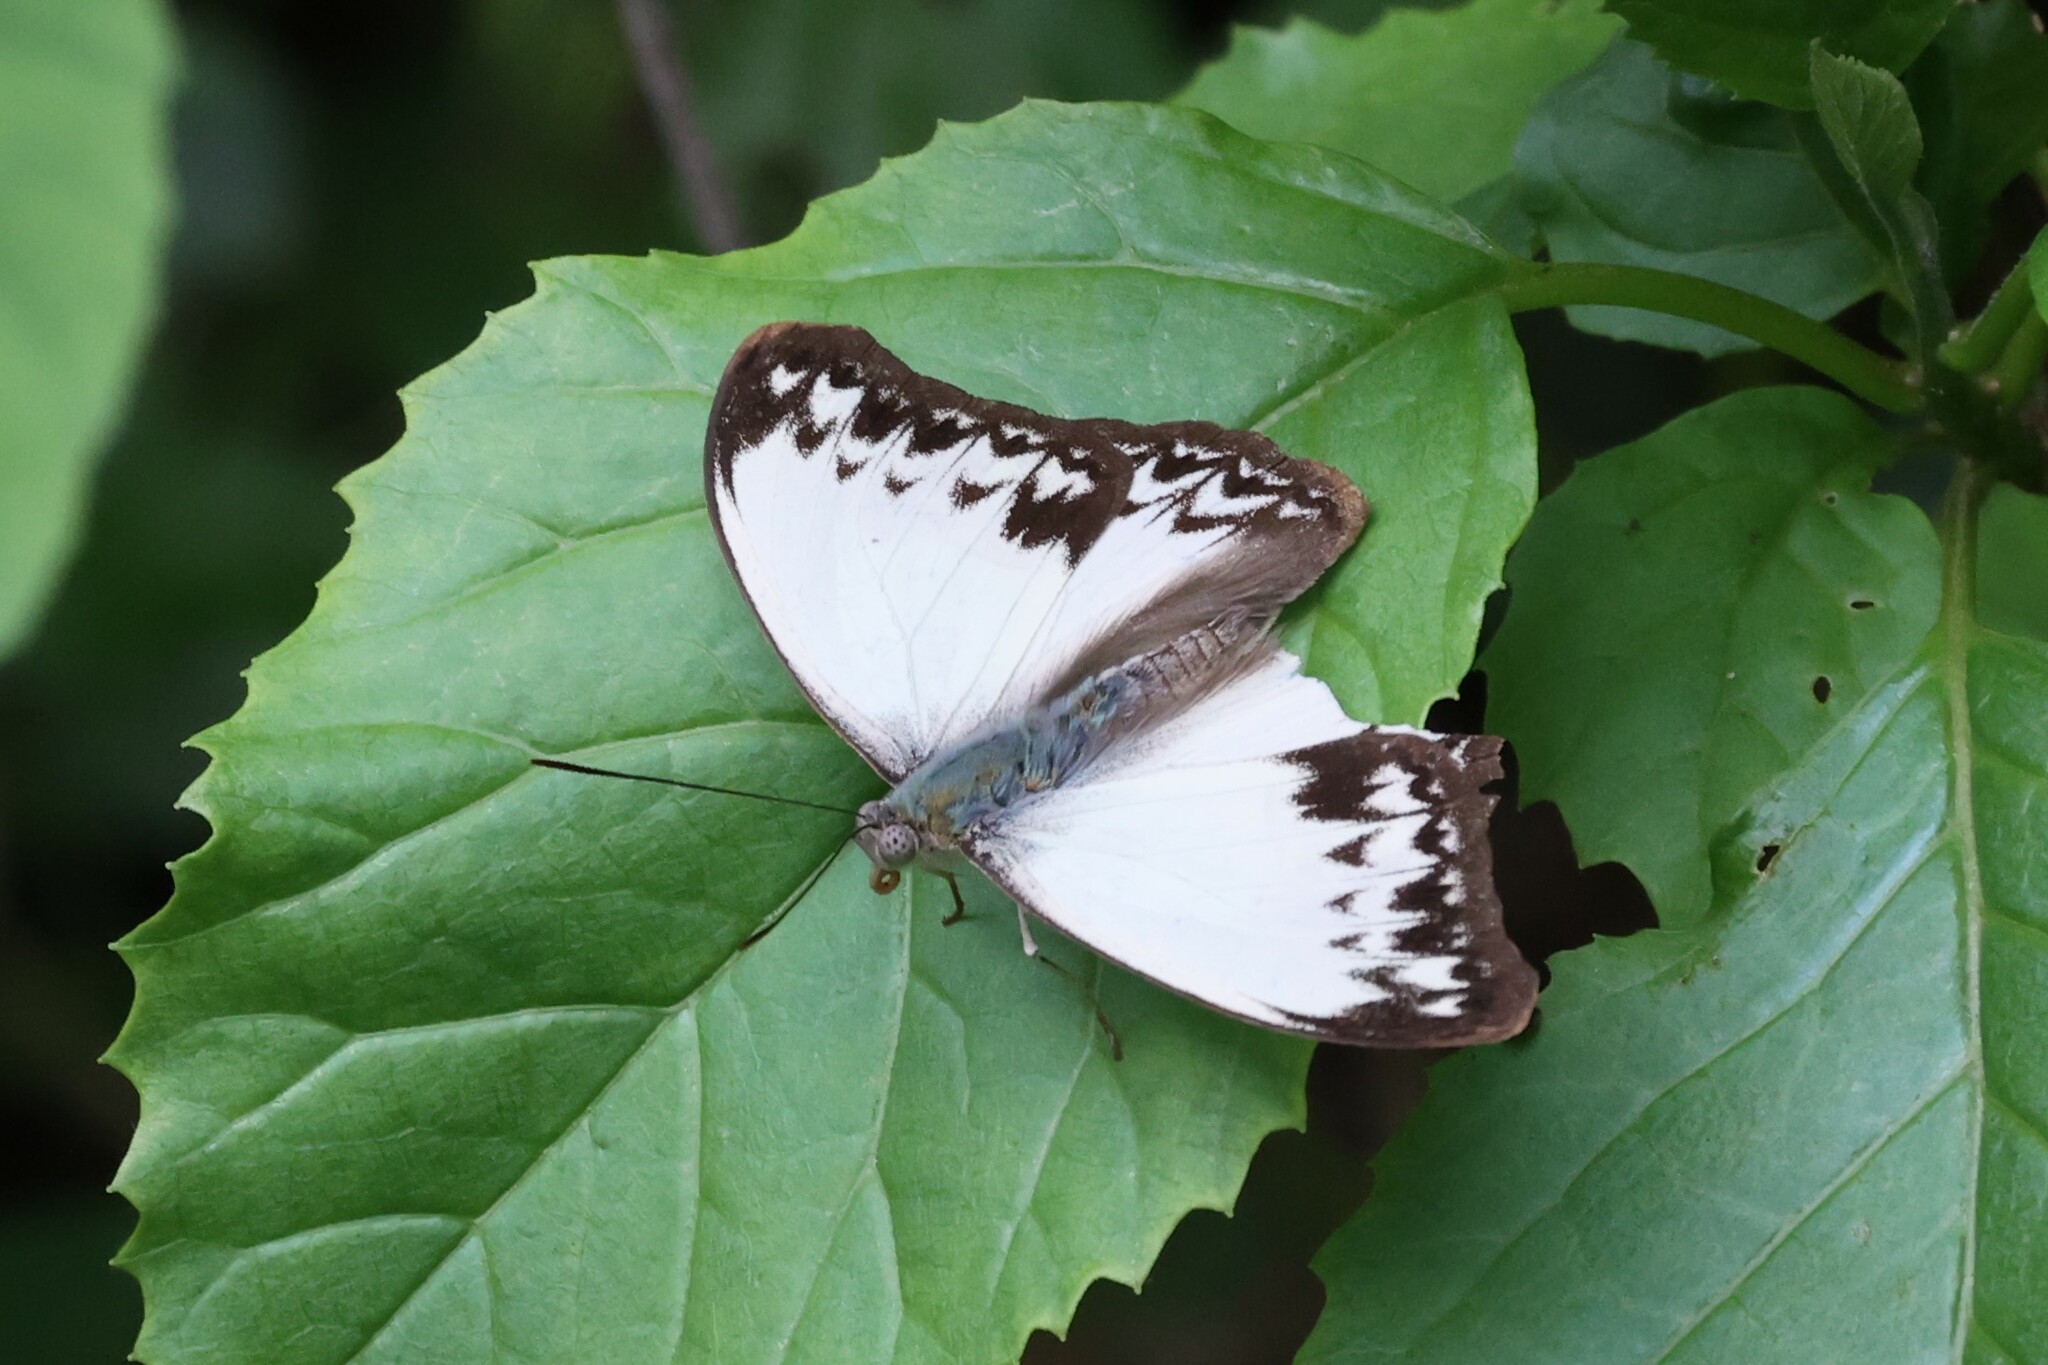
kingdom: Animalia
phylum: Arthropoda
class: Insecta
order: Lepidoptera
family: Nymphalidae
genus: Cymothoe
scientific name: Cymothoe caenis
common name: Common glider
